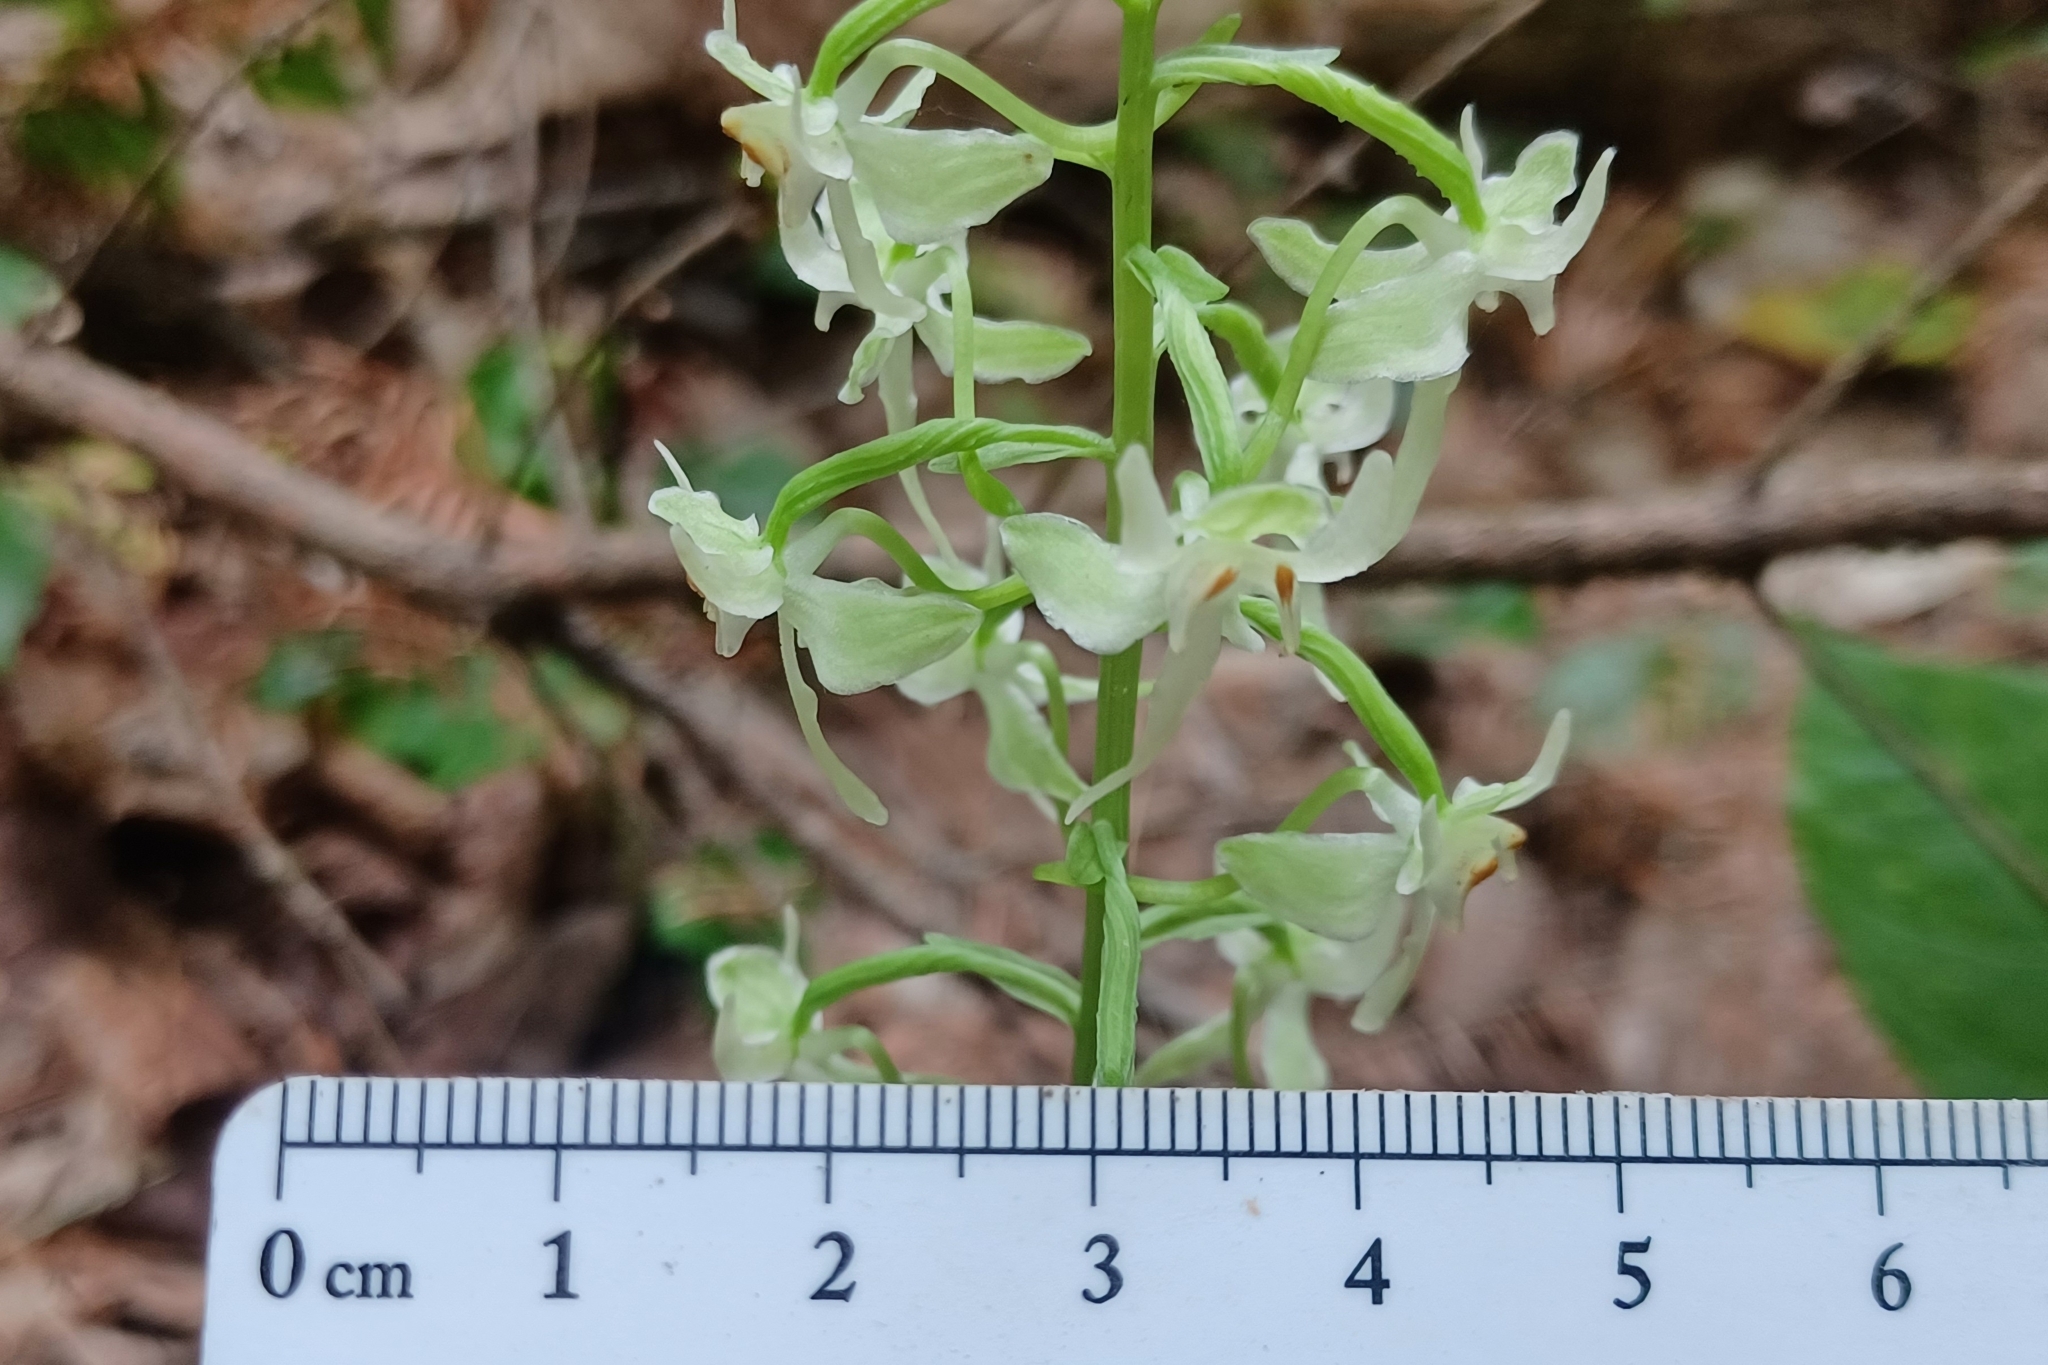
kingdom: Plantae
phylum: Tracheophyta
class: Liliopsida
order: Asparagales
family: Orchidaceae
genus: Platanthera
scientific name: Platanthera orbiculata
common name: Large round-leaved orchid
